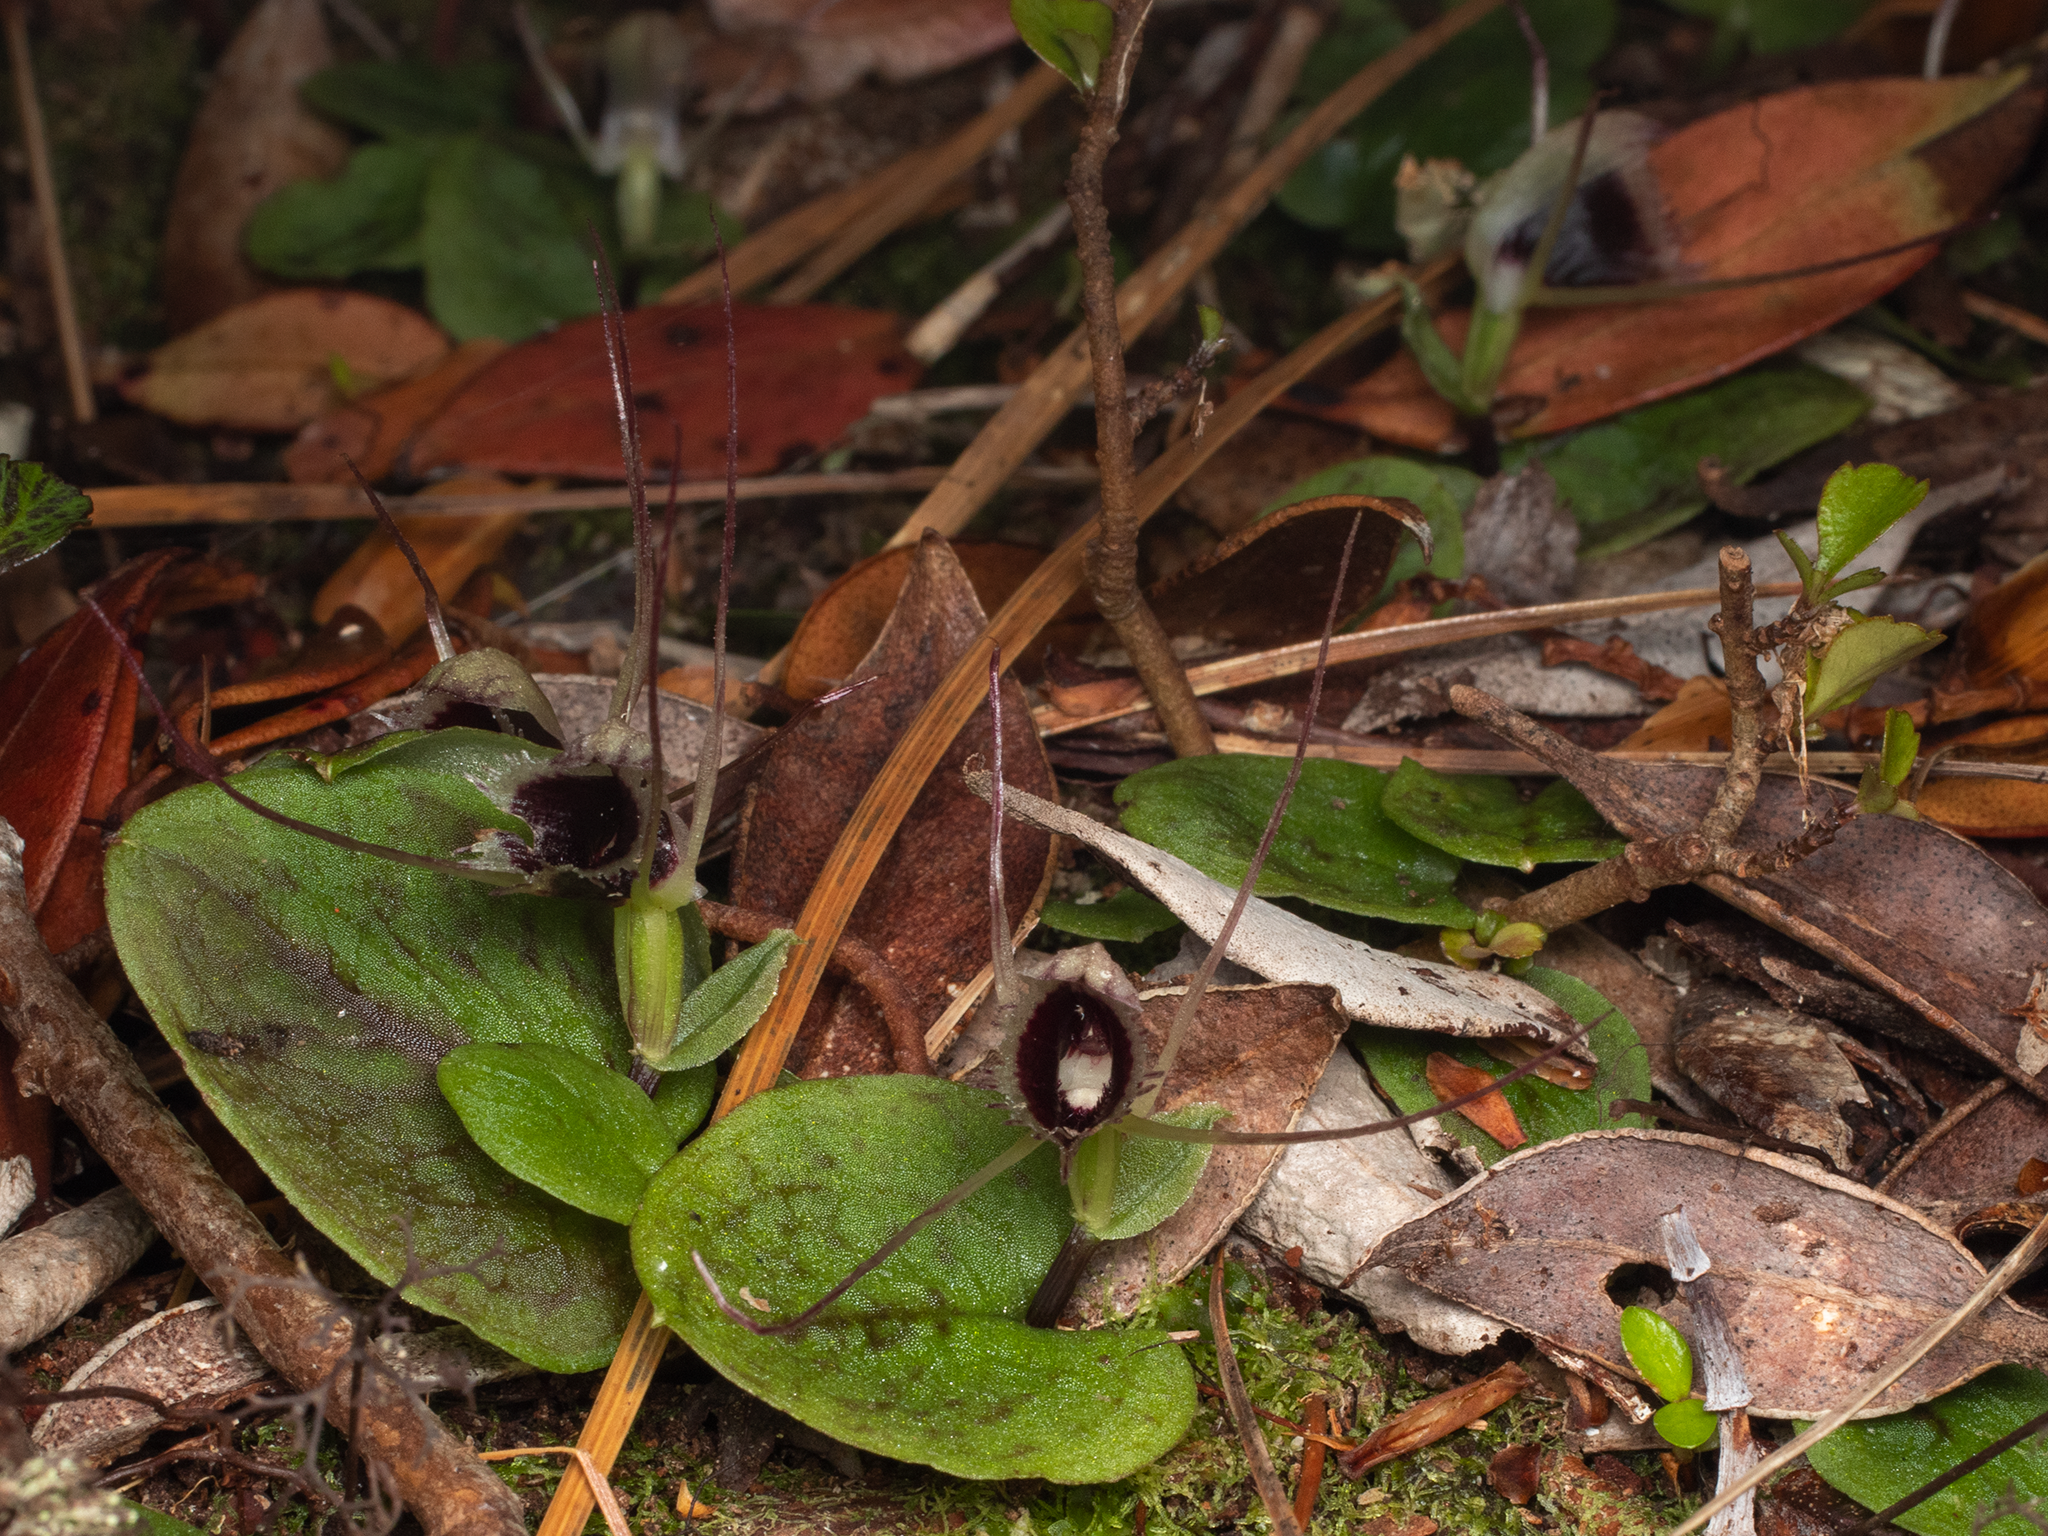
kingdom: Plantae
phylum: Tracheophyta
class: Liliopsida
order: Asparagales
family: Orchidaceae
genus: Corybas
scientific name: Corybas oblongus
